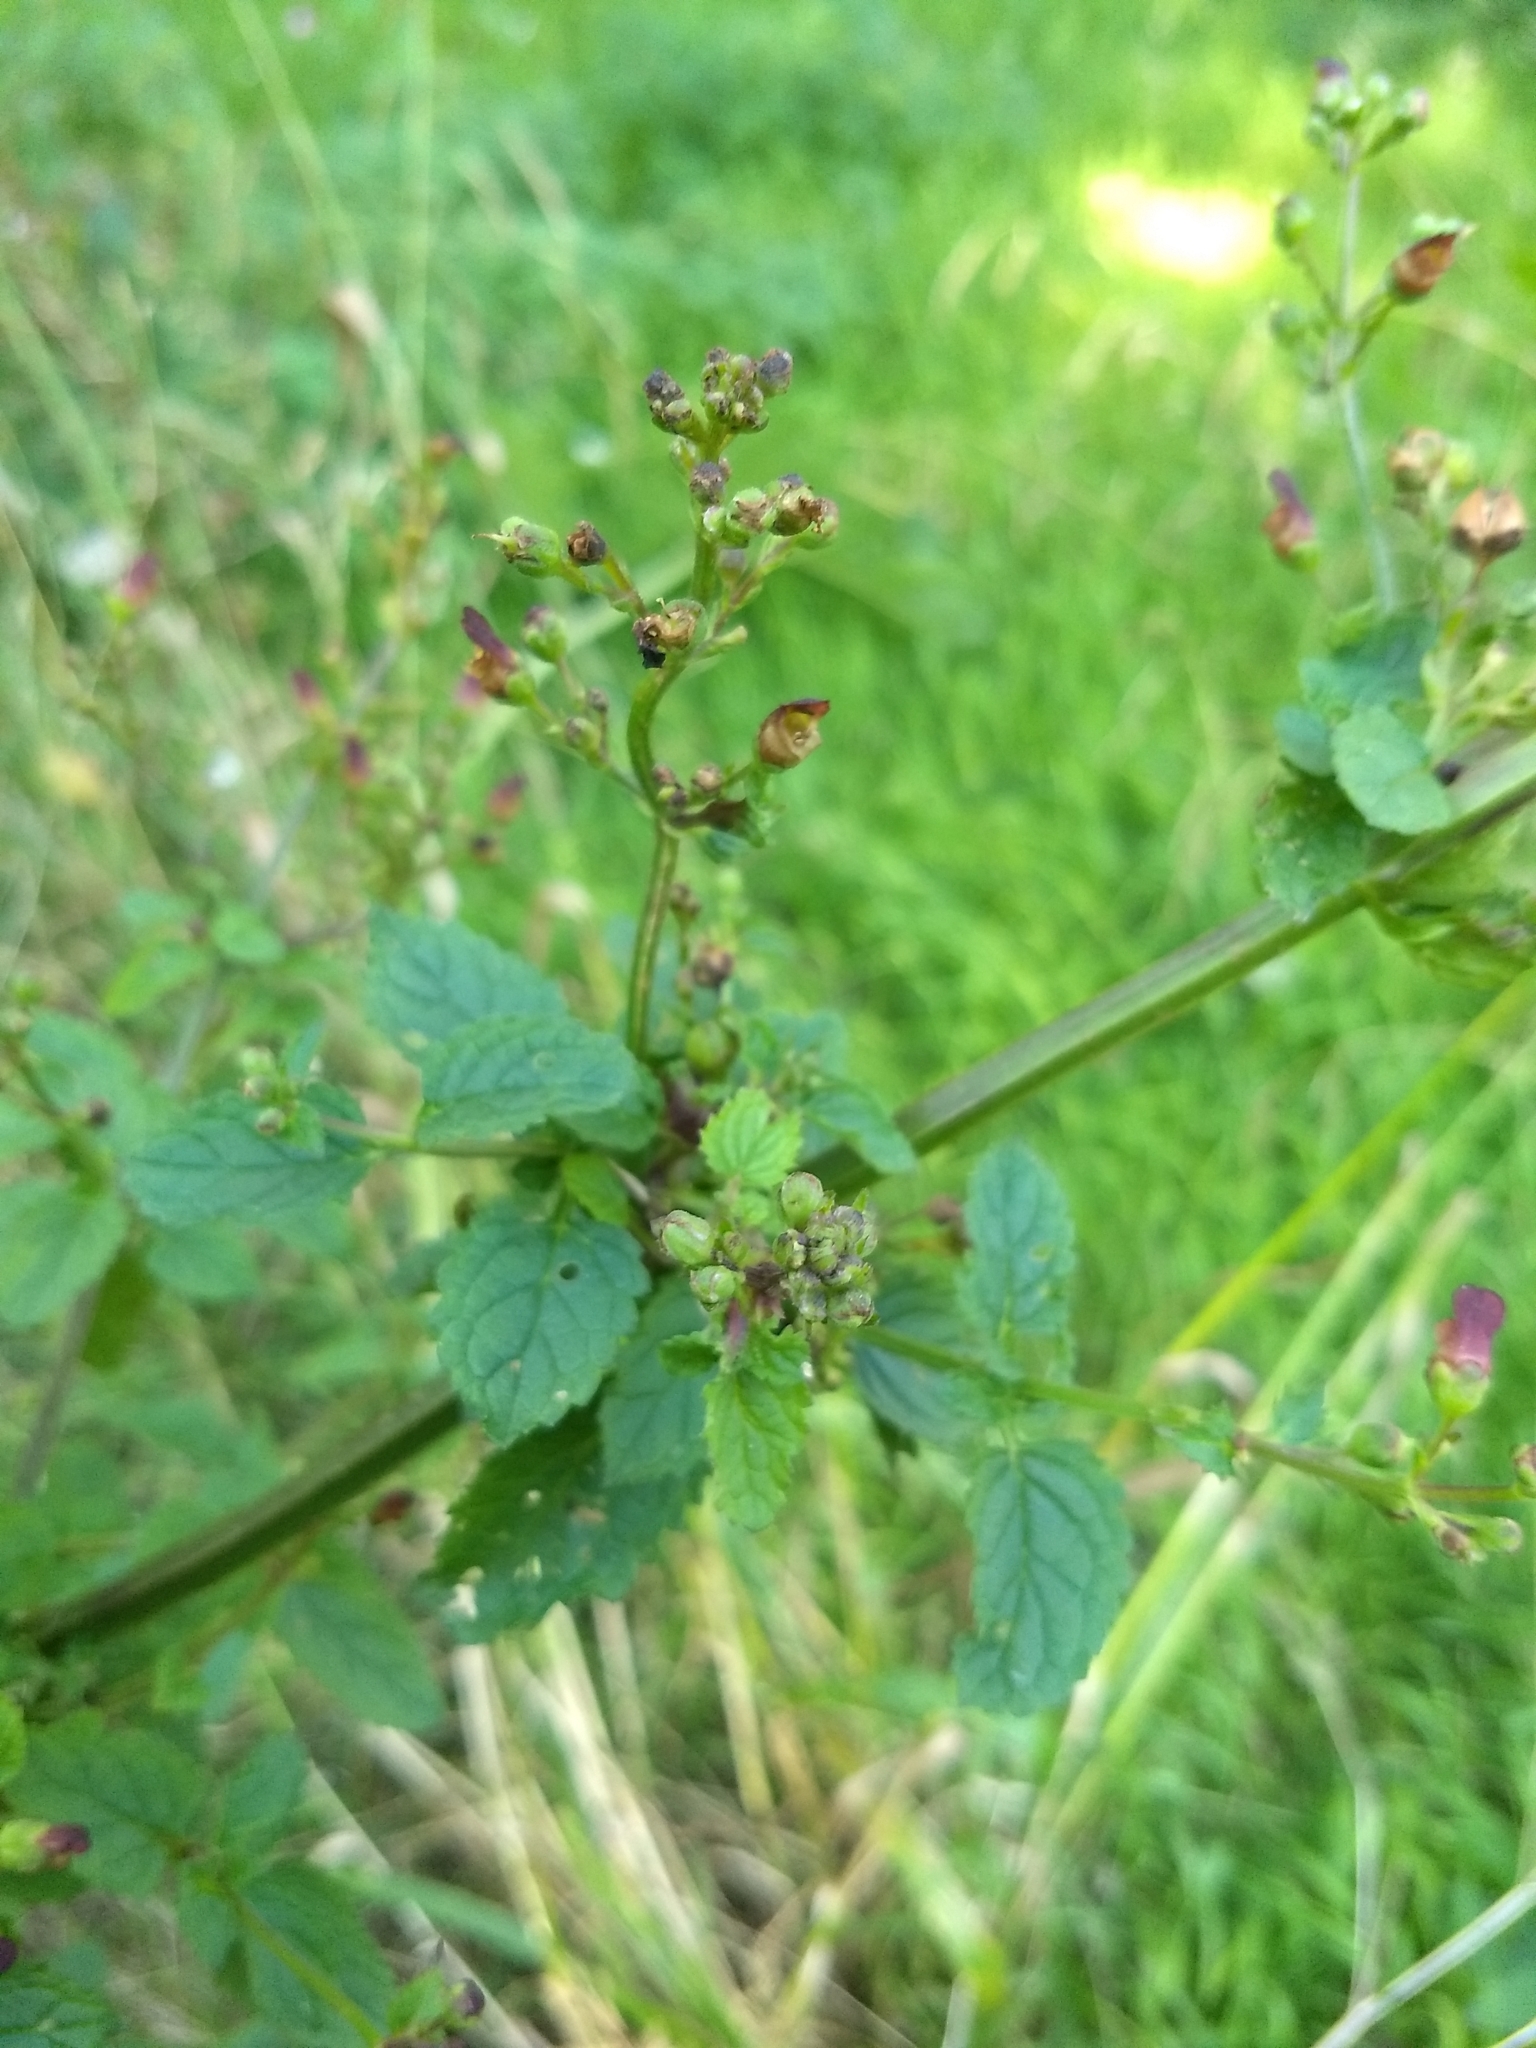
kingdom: Plantae
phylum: Tracheophyta
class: Magnoliopsida
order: Lamiales
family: Scrophulariaceae
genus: Scrophularia
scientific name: Scrophularia nodosa
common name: Common figwort
